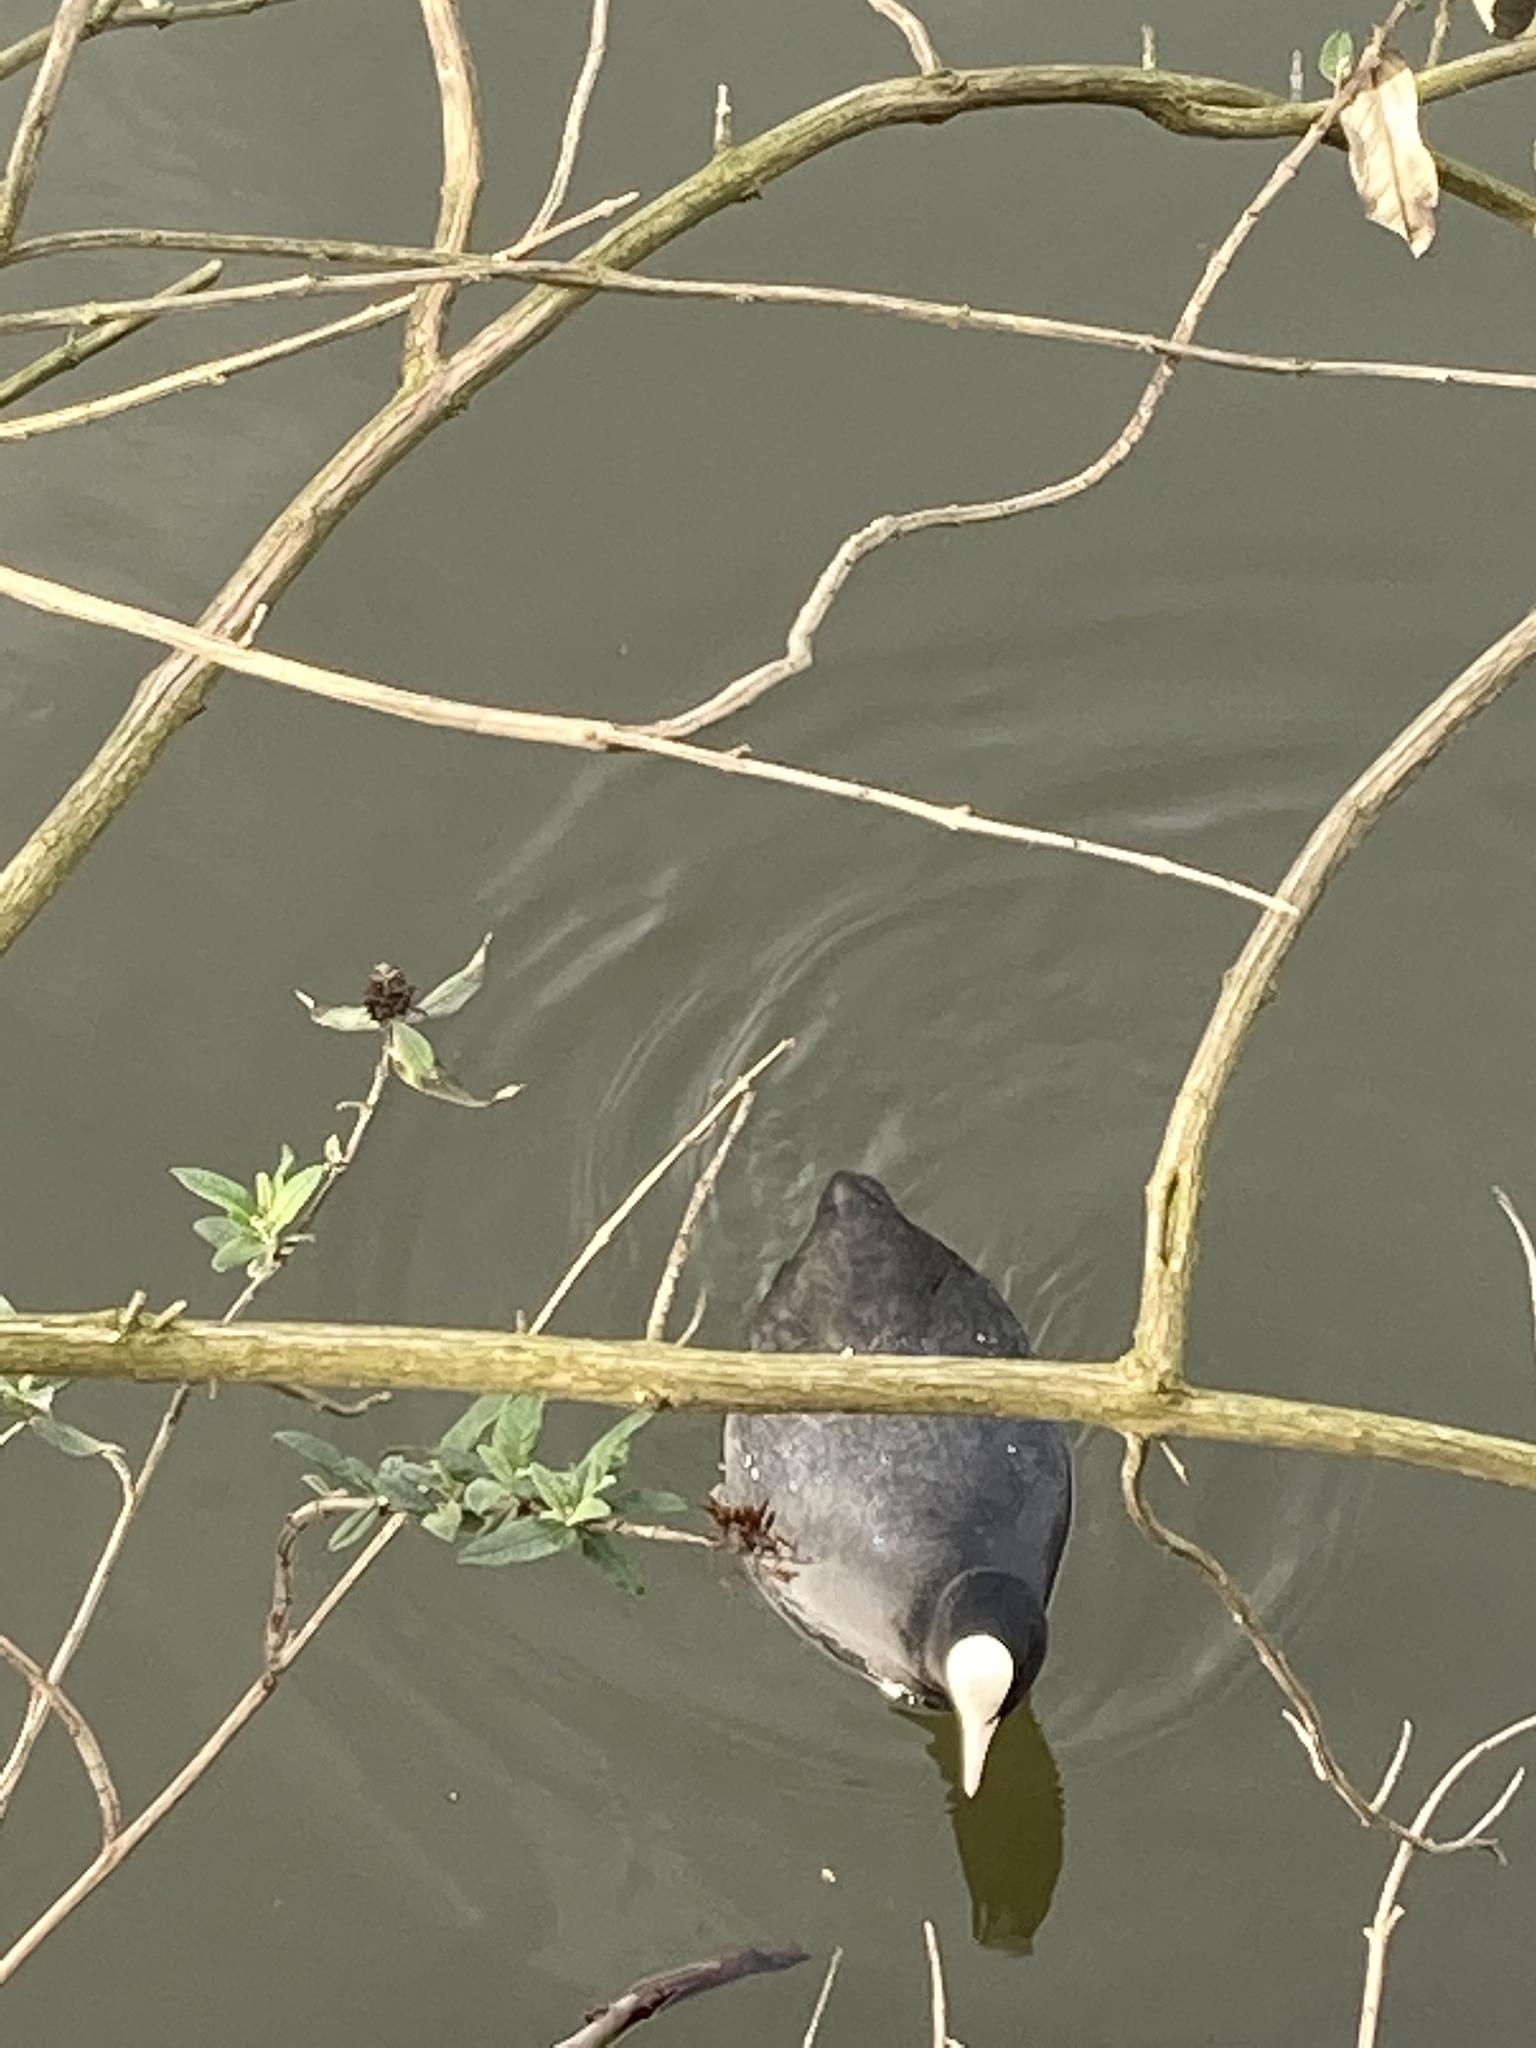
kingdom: Animalia
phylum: Chordata
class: Aves
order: Gruiformes
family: Rallidae
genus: Fulica
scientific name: Fulica atra
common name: Eurasian coot
